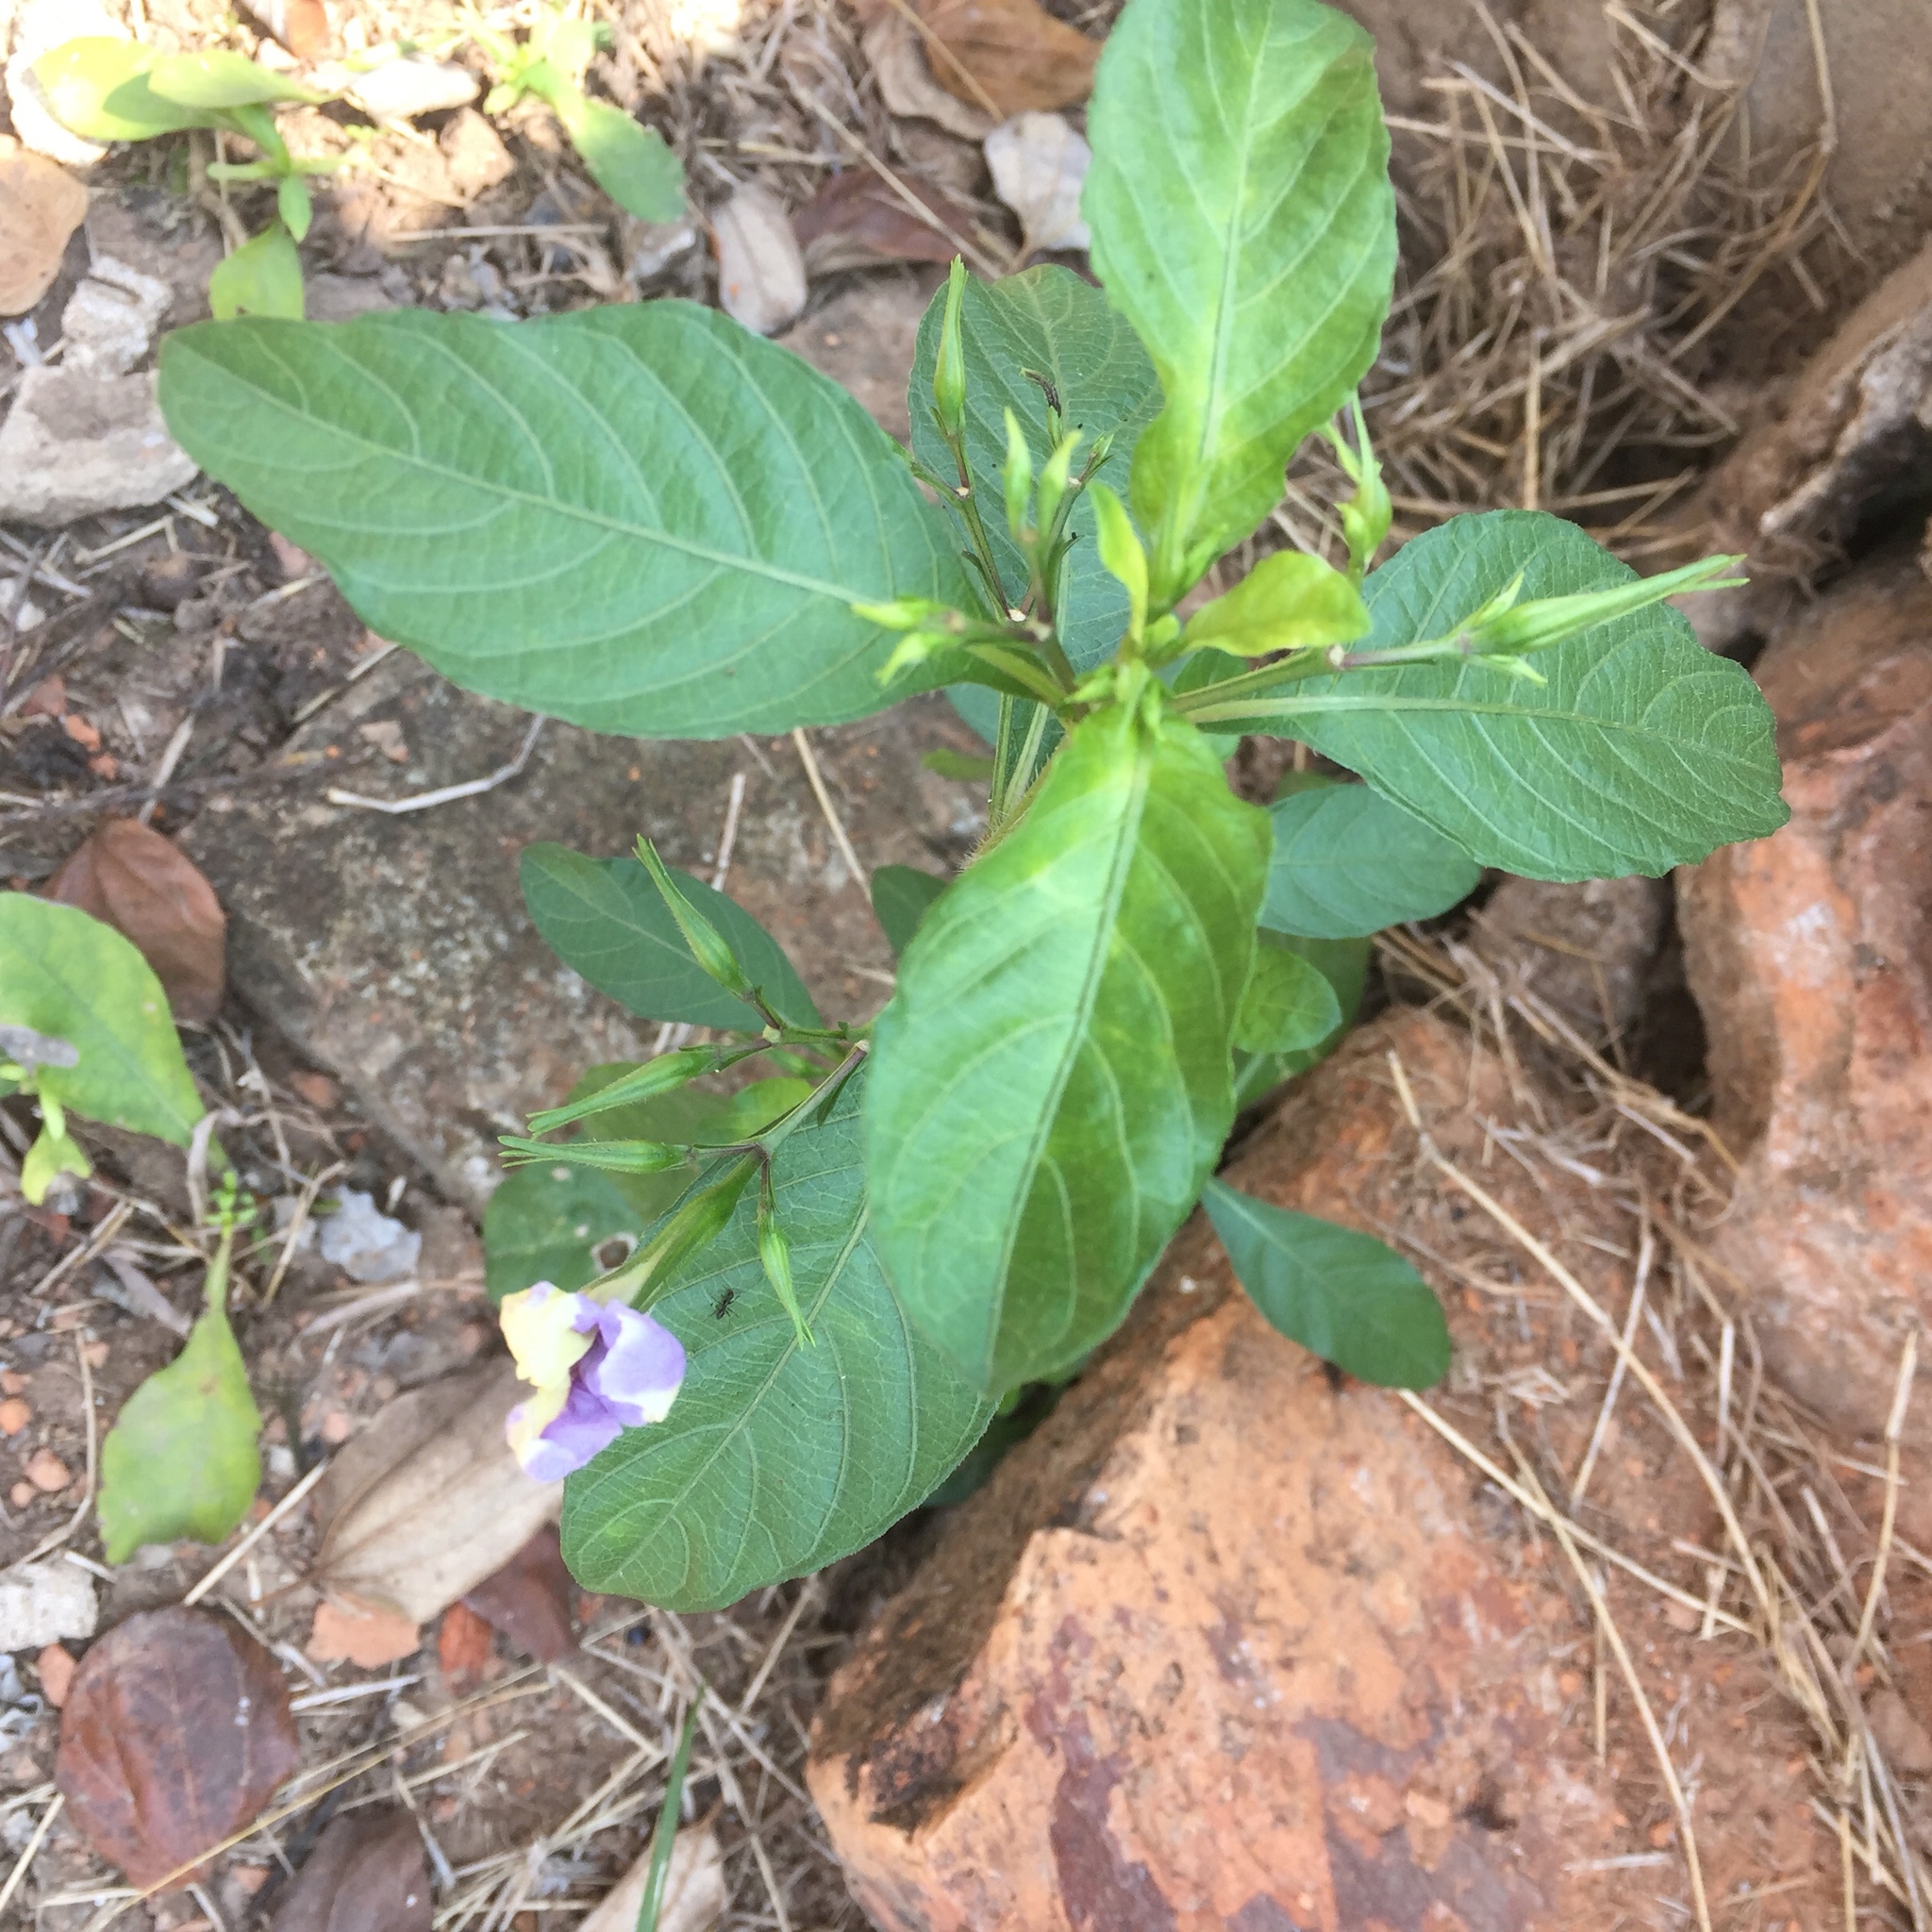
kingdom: Plantae
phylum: Tracheophyta
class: Magnoliopsida
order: Lamiales
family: Acanthaceae
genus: Ruellia
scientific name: Ruellia tuberosa
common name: Devil's bit
